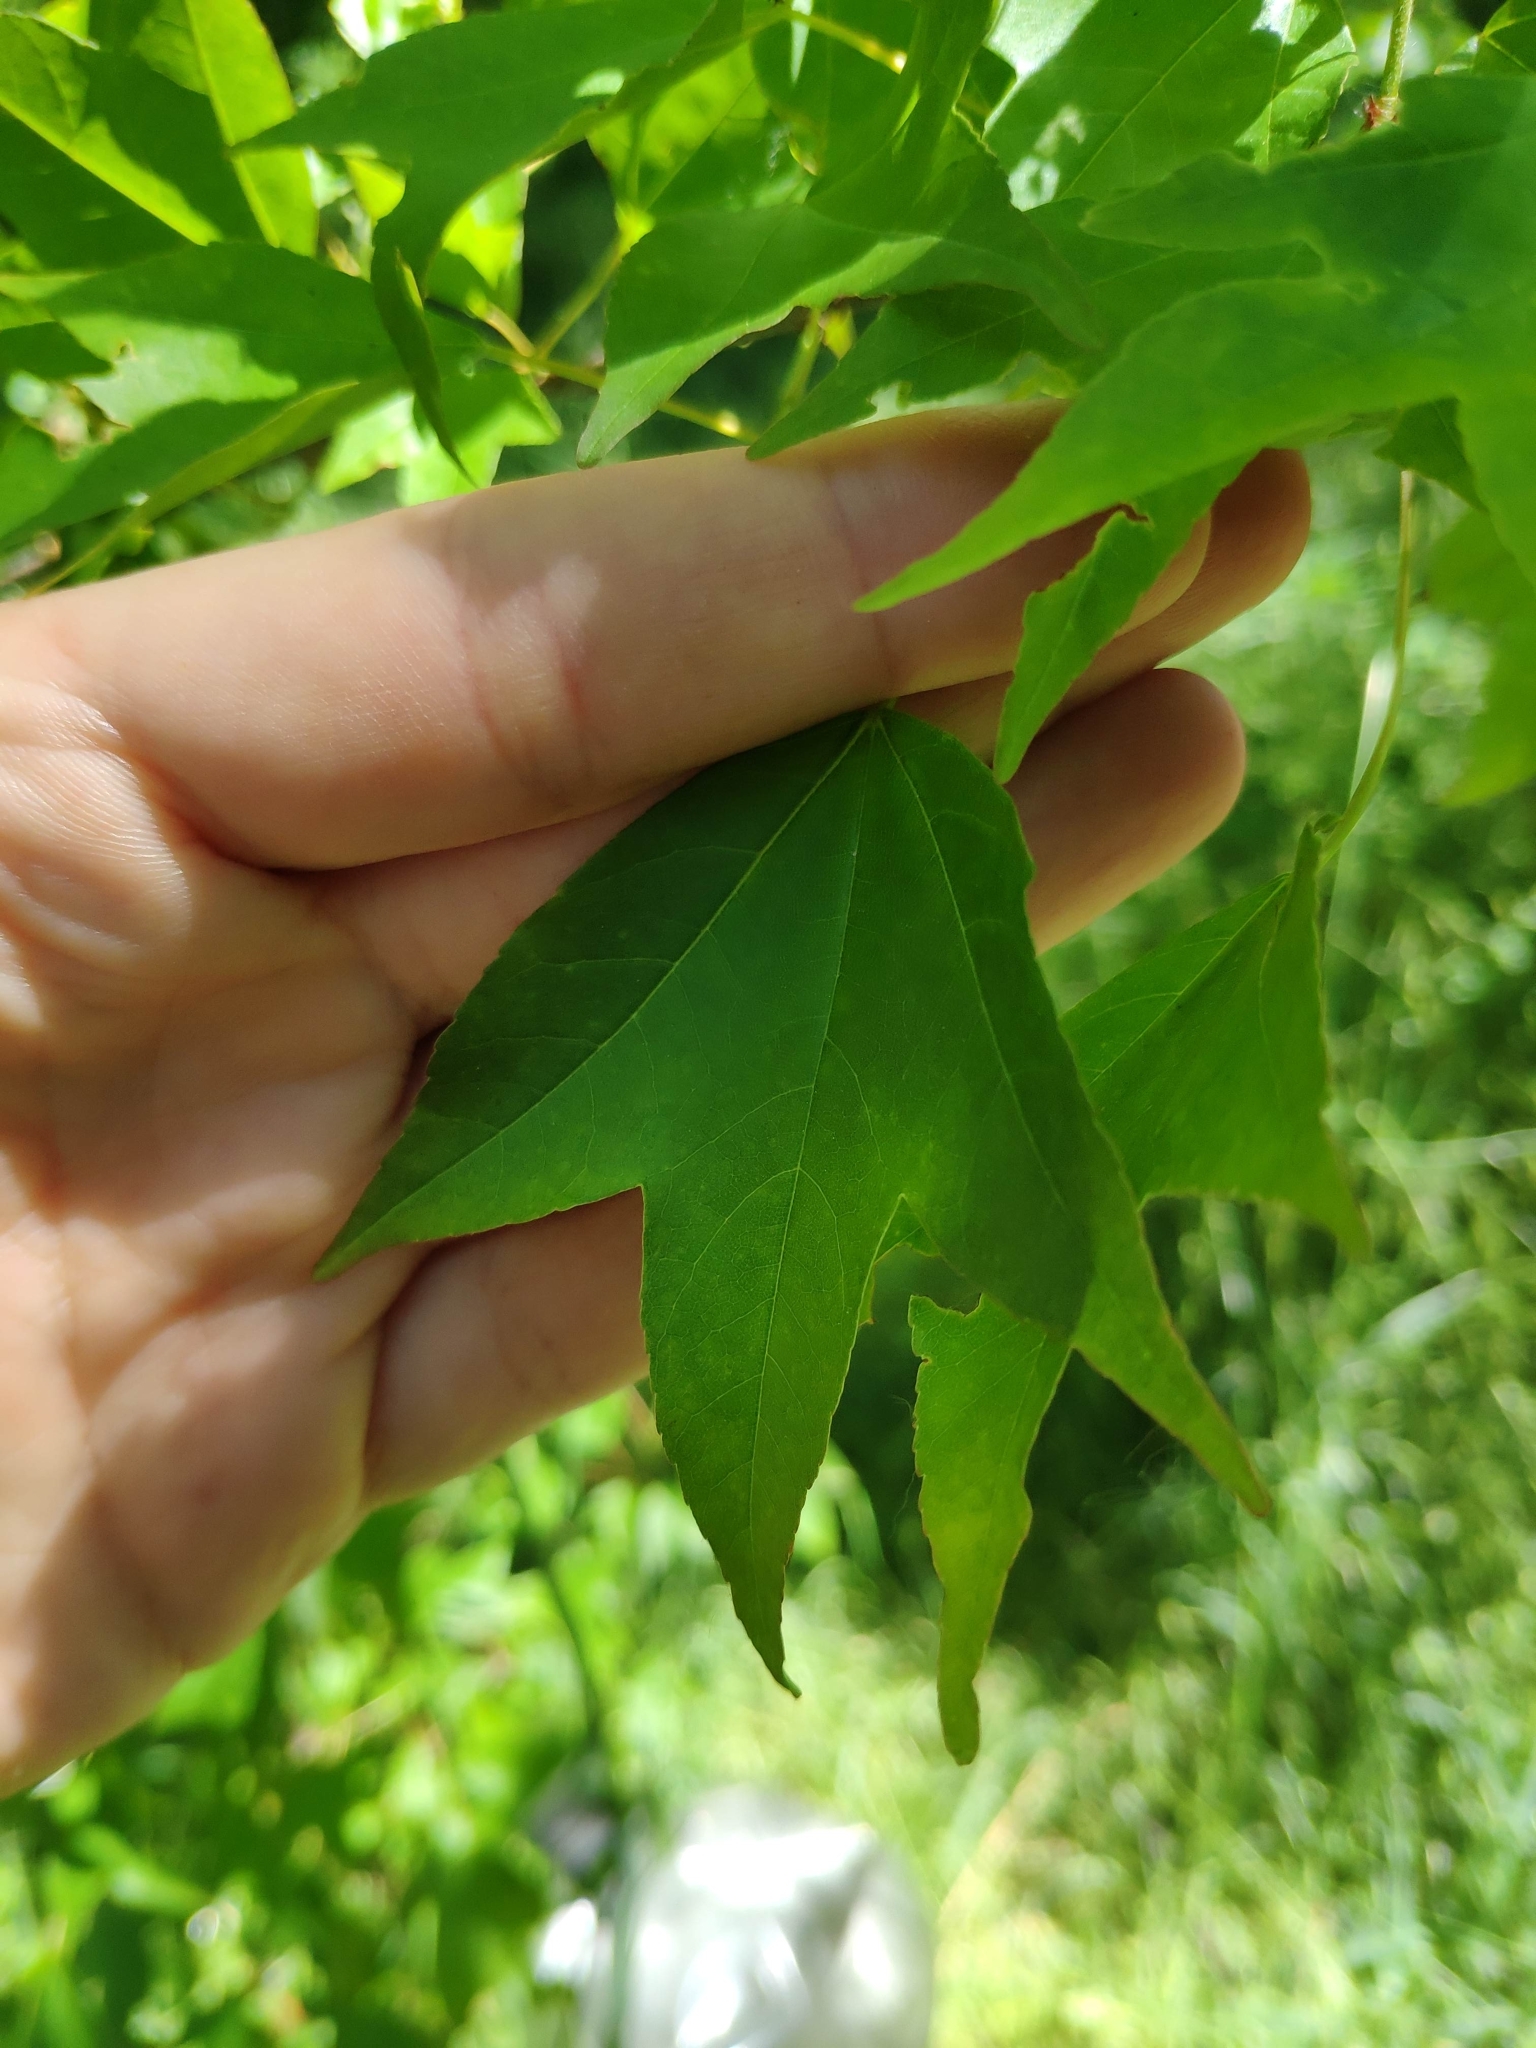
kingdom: Plantae
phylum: Tracheophyta
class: Magnoliopsida
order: Sapindales
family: Sapindaceae
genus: Acer
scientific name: Acer buergerianum
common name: Trident maple
